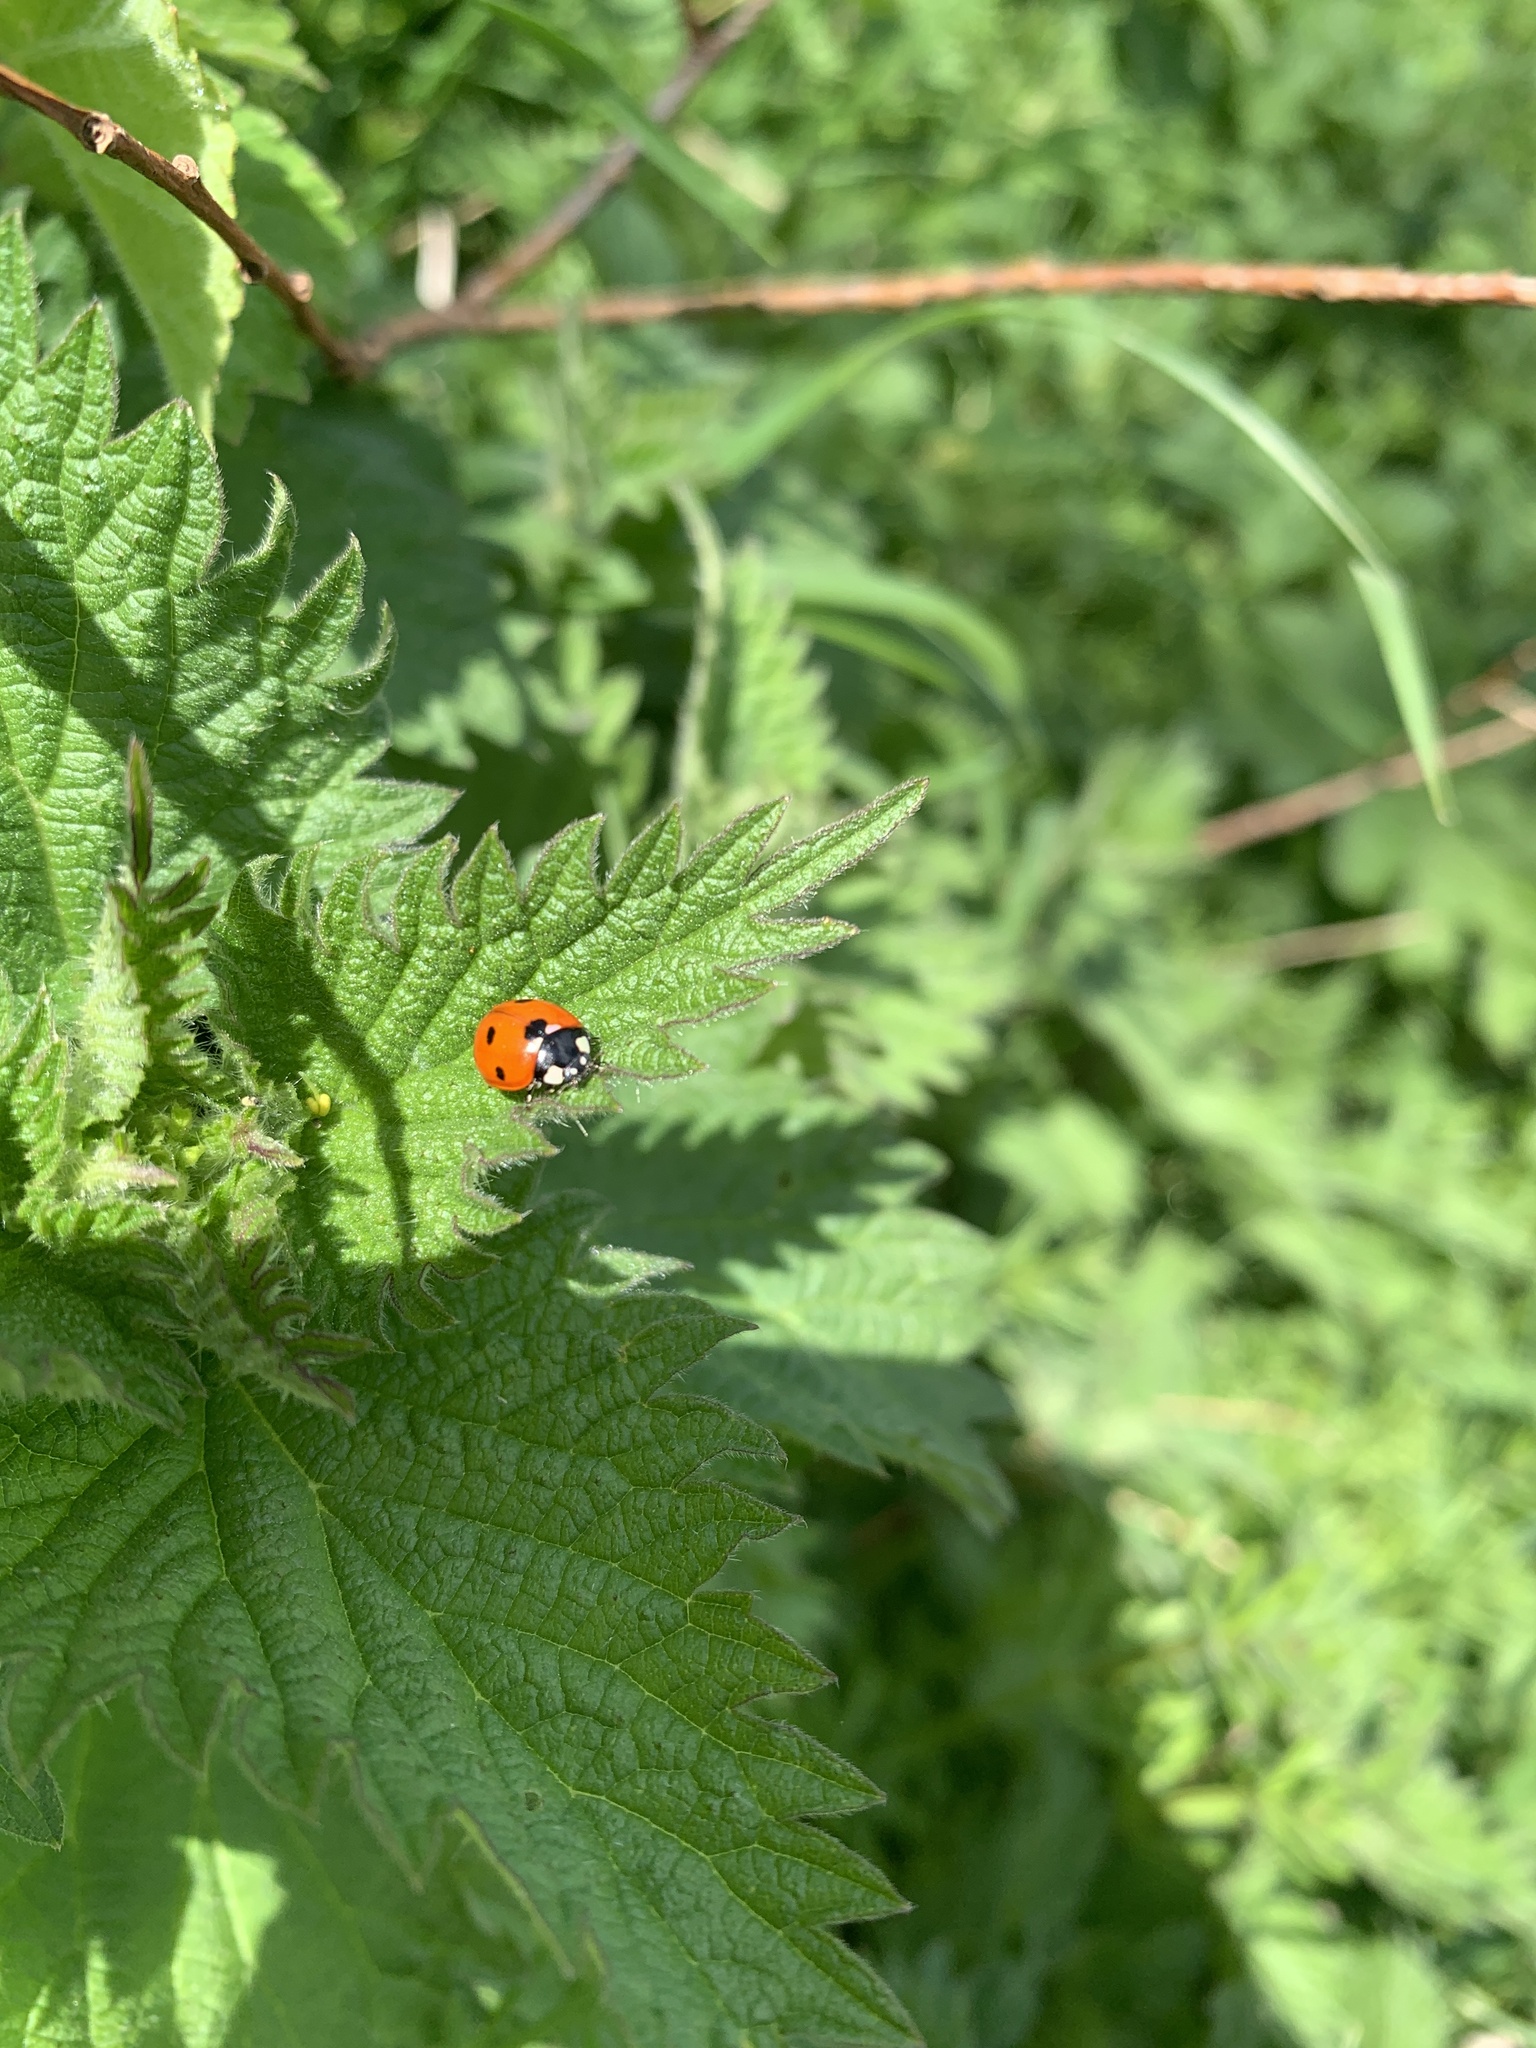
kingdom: Animalia
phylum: Arthropoda
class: Insecta
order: Coleoptera
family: Coccinellidae
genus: Coccinella
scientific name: Coccinella septempunctata
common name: Sevenspotted lady beetle
